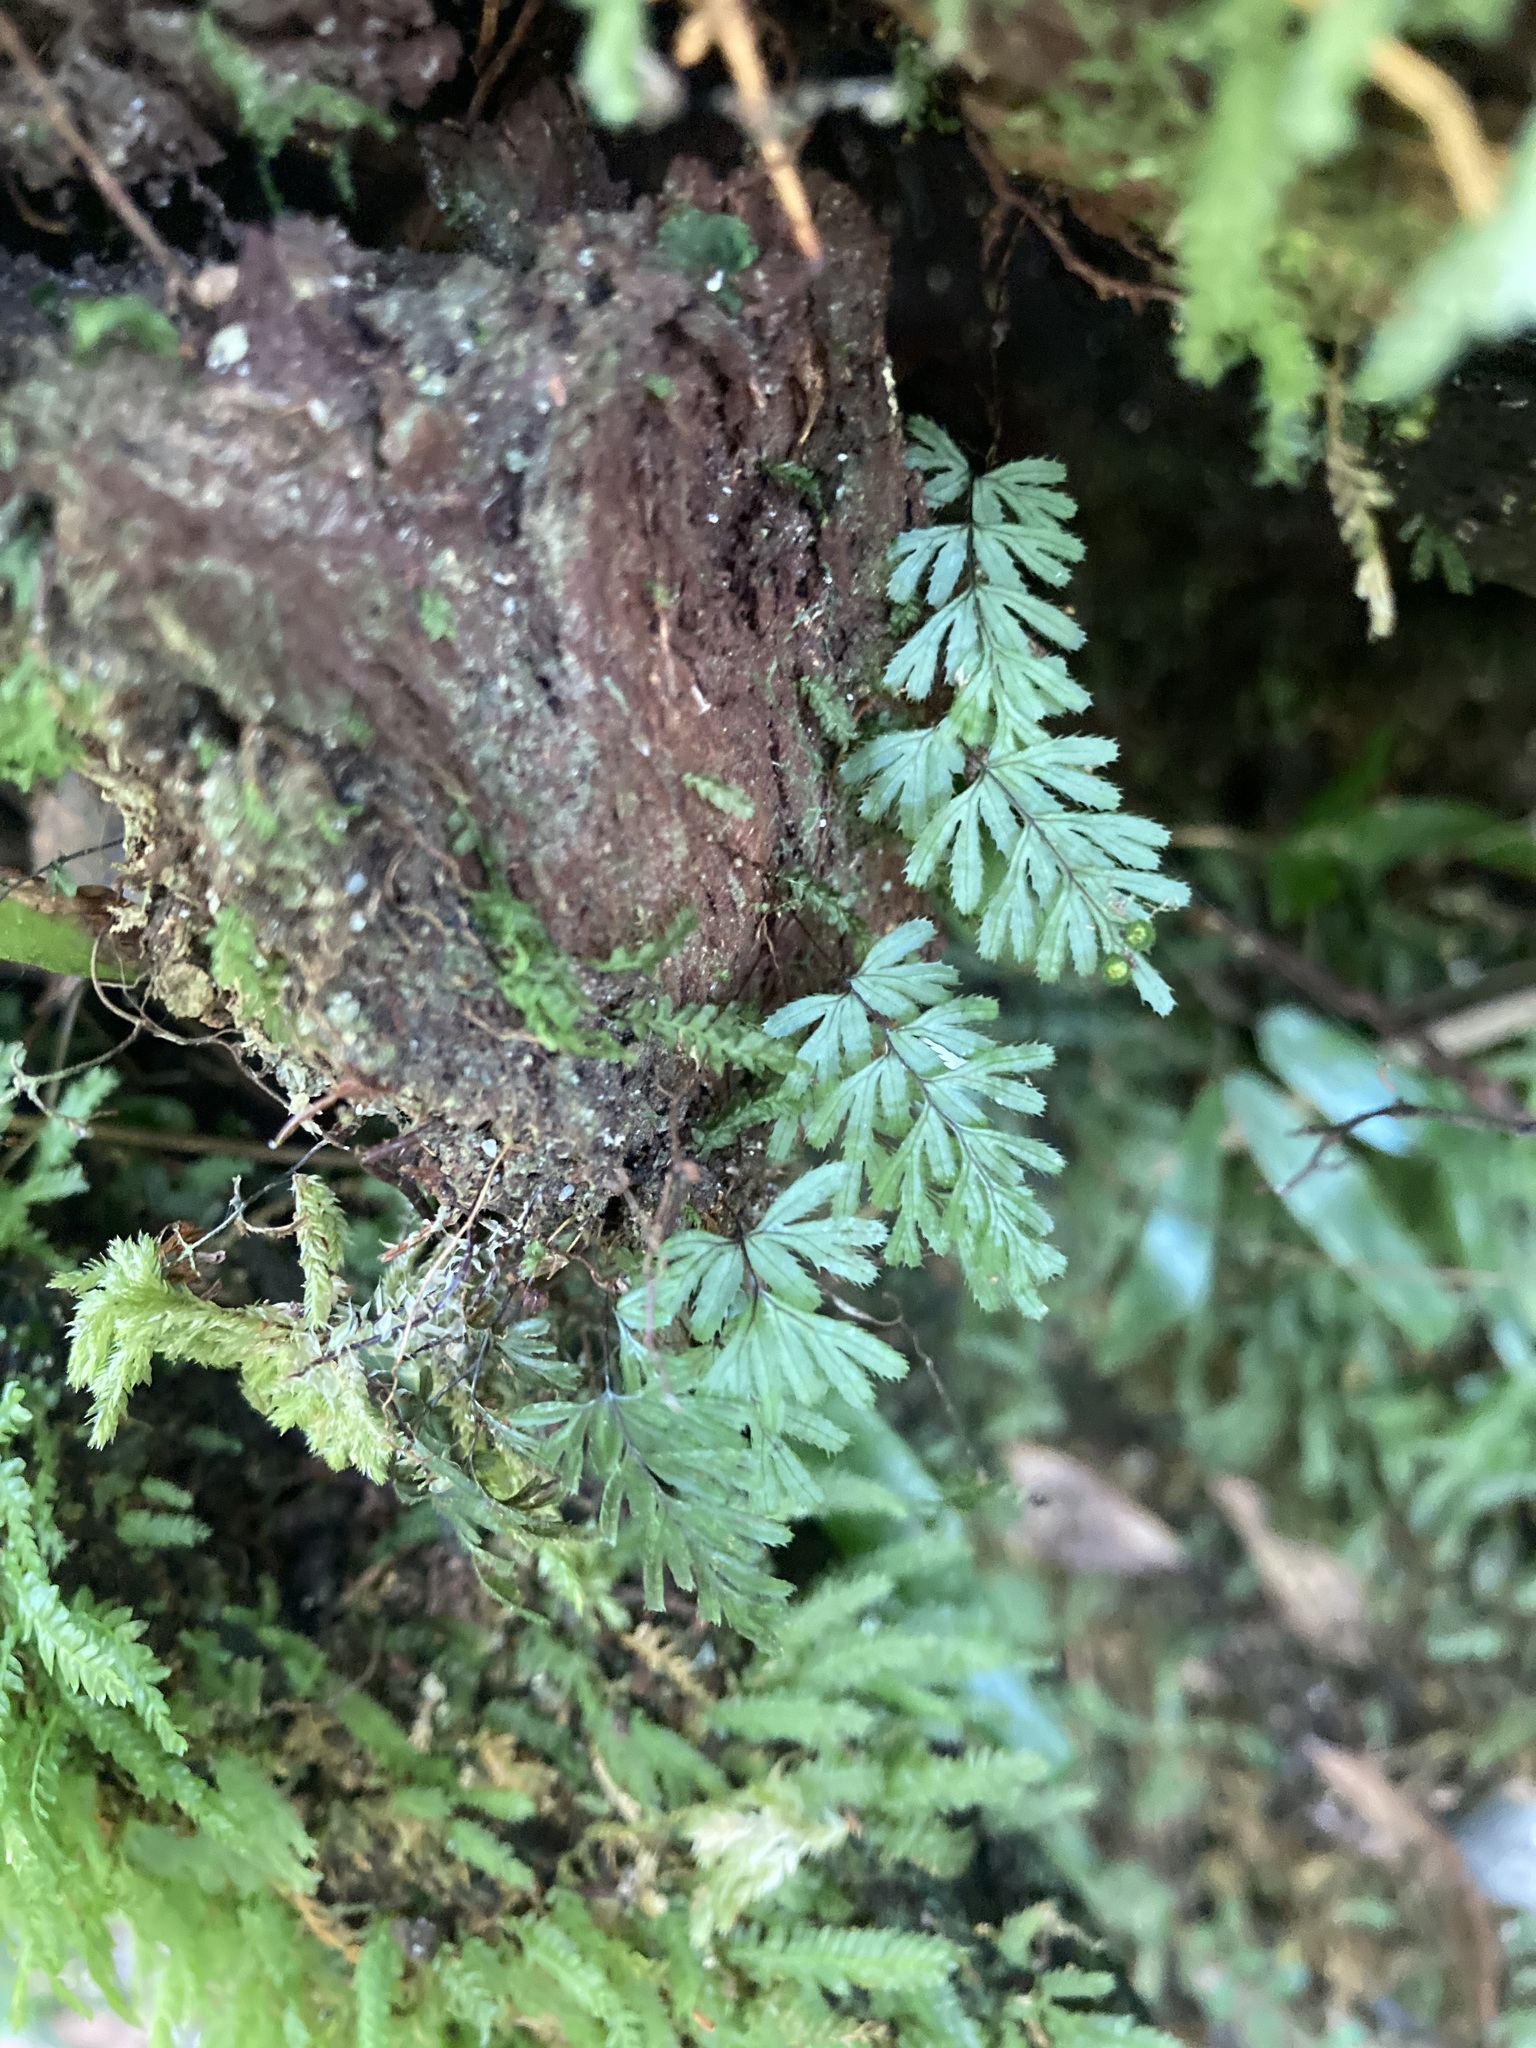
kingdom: Plantae
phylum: Tracheophyta
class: Polypodiopsida
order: Hymenophyllales
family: Hymenophyllaceae
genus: Hymenophyllum
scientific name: Hymenophyllum revolutum
